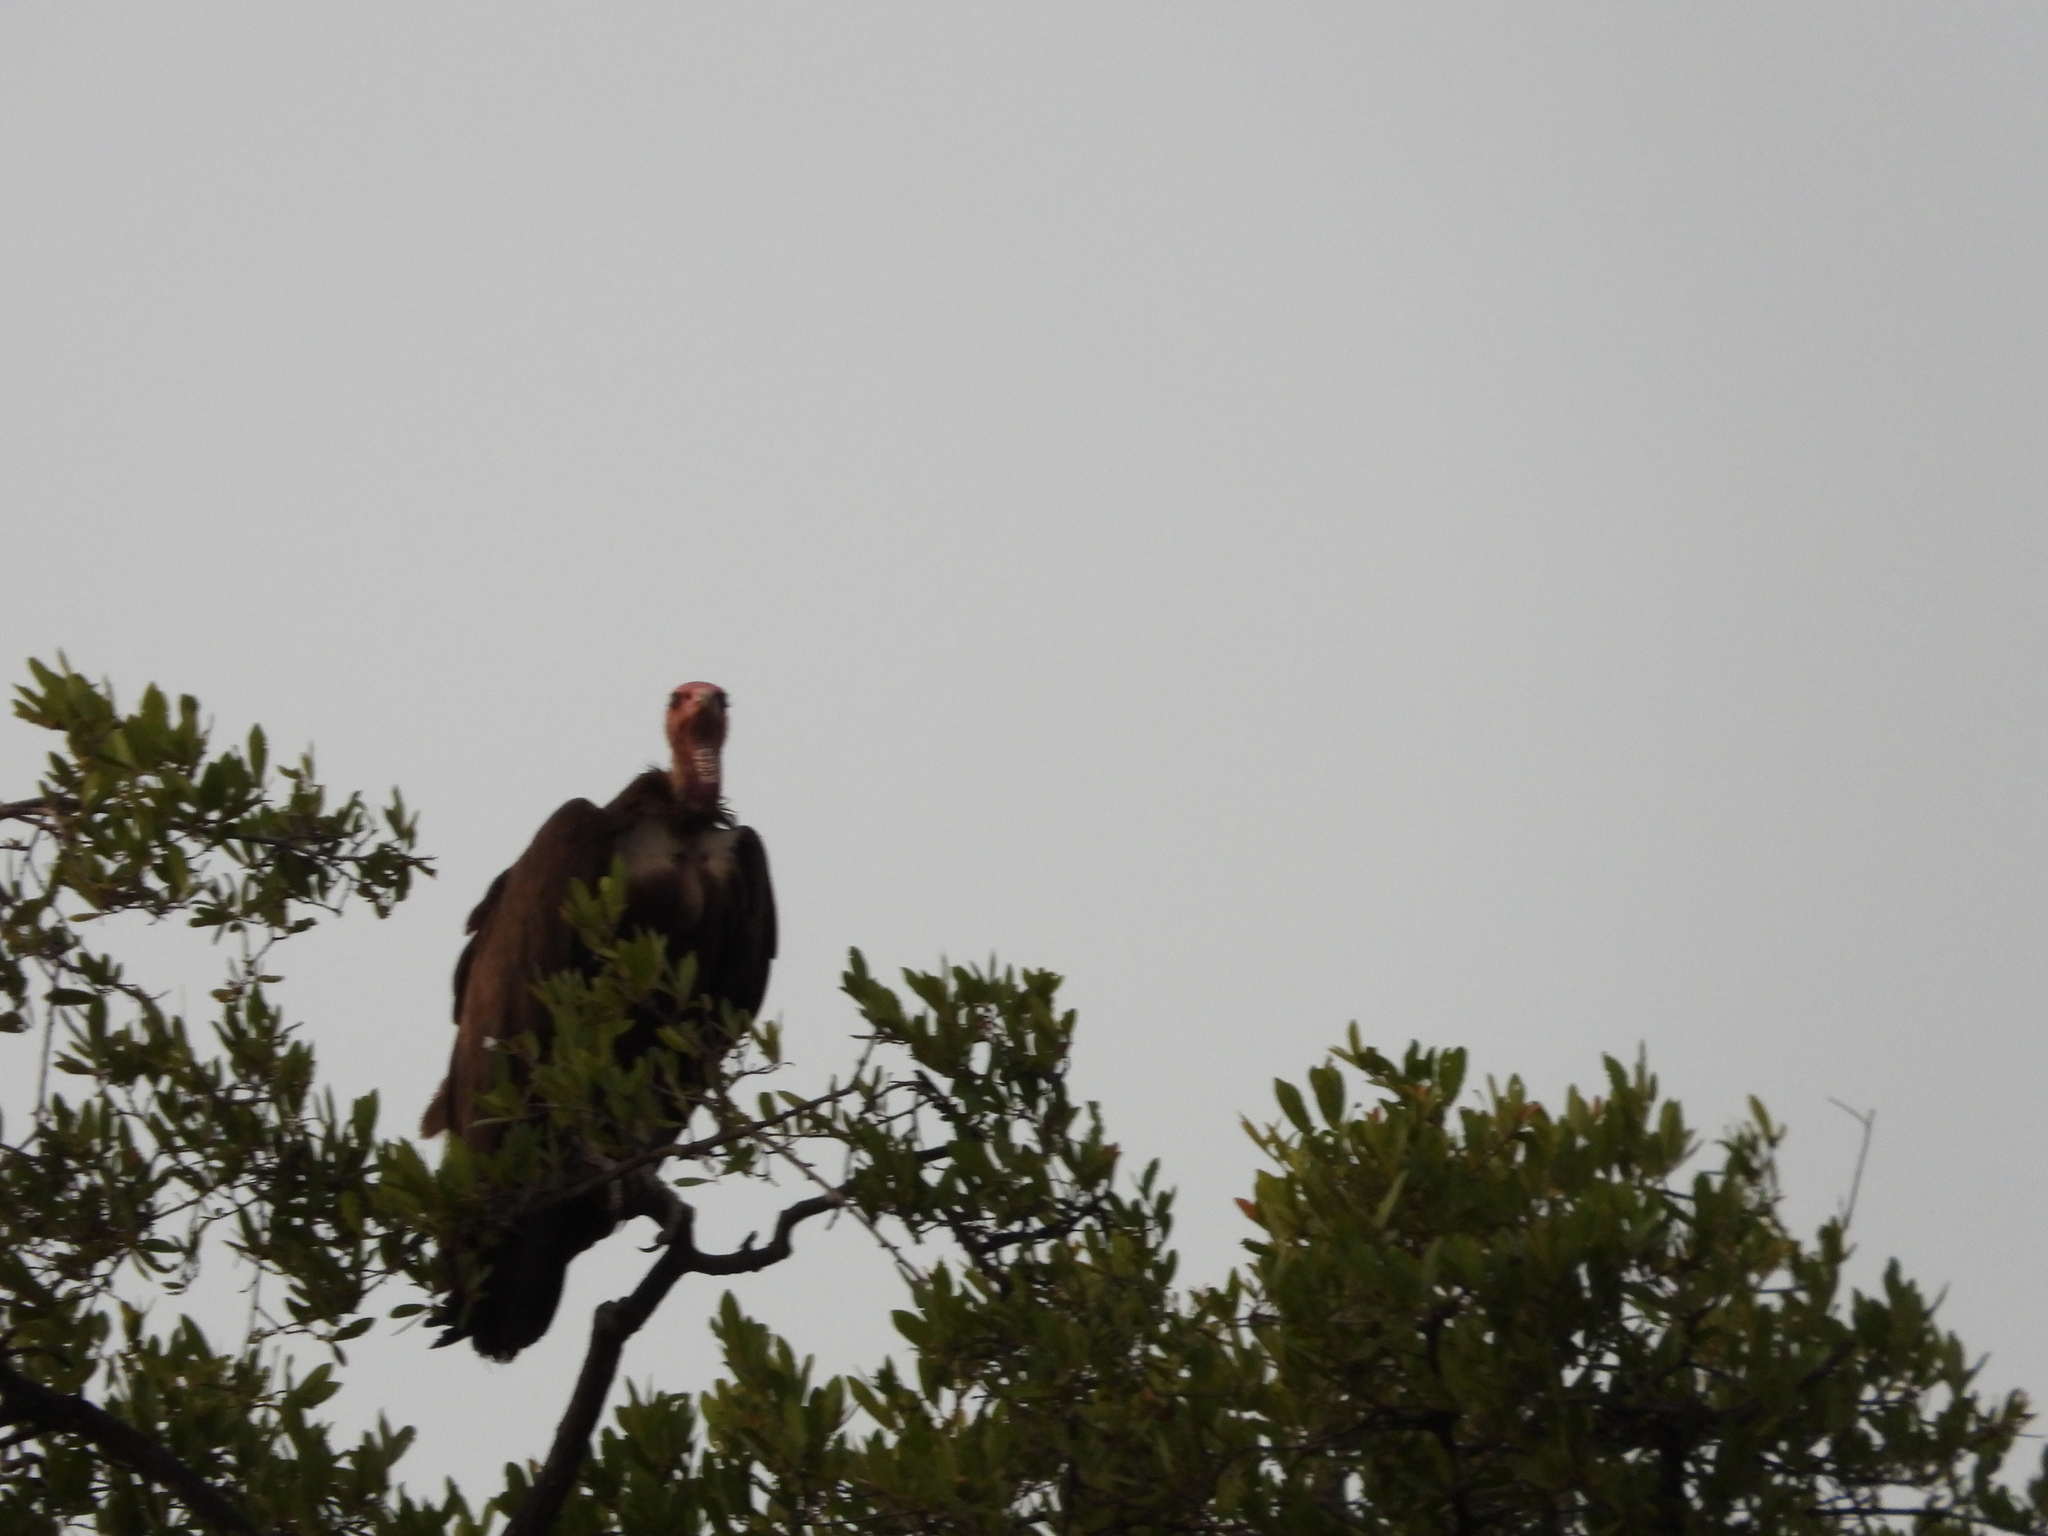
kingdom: Animalia
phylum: Chordata
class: Aves
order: Accipitriformes
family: Accipitridae
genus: Necrosyrtes
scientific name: Necrosyrtes monachus
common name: Hooded vulture
